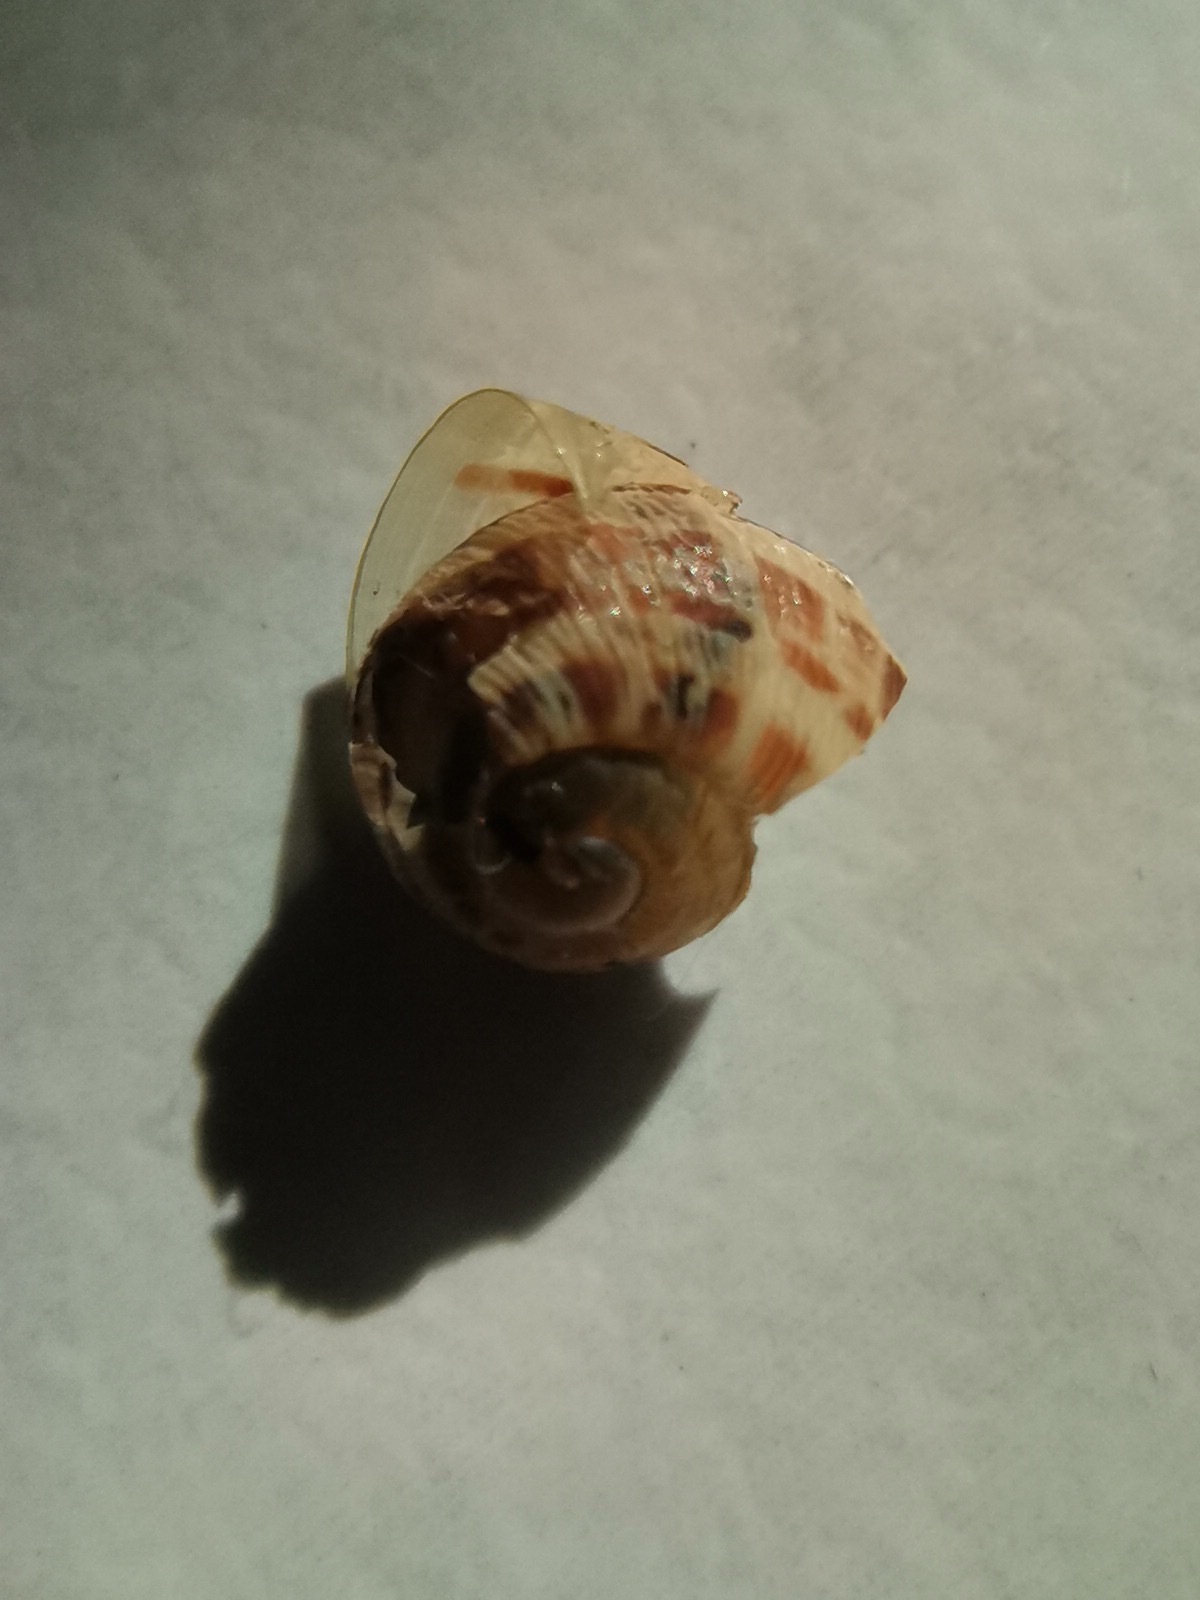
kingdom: Animalia
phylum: Mollusca
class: Gastropoda
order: Stylommatophora
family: Helicidae
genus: Cornu
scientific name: Cornu aspersum
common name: Brown garden snail
